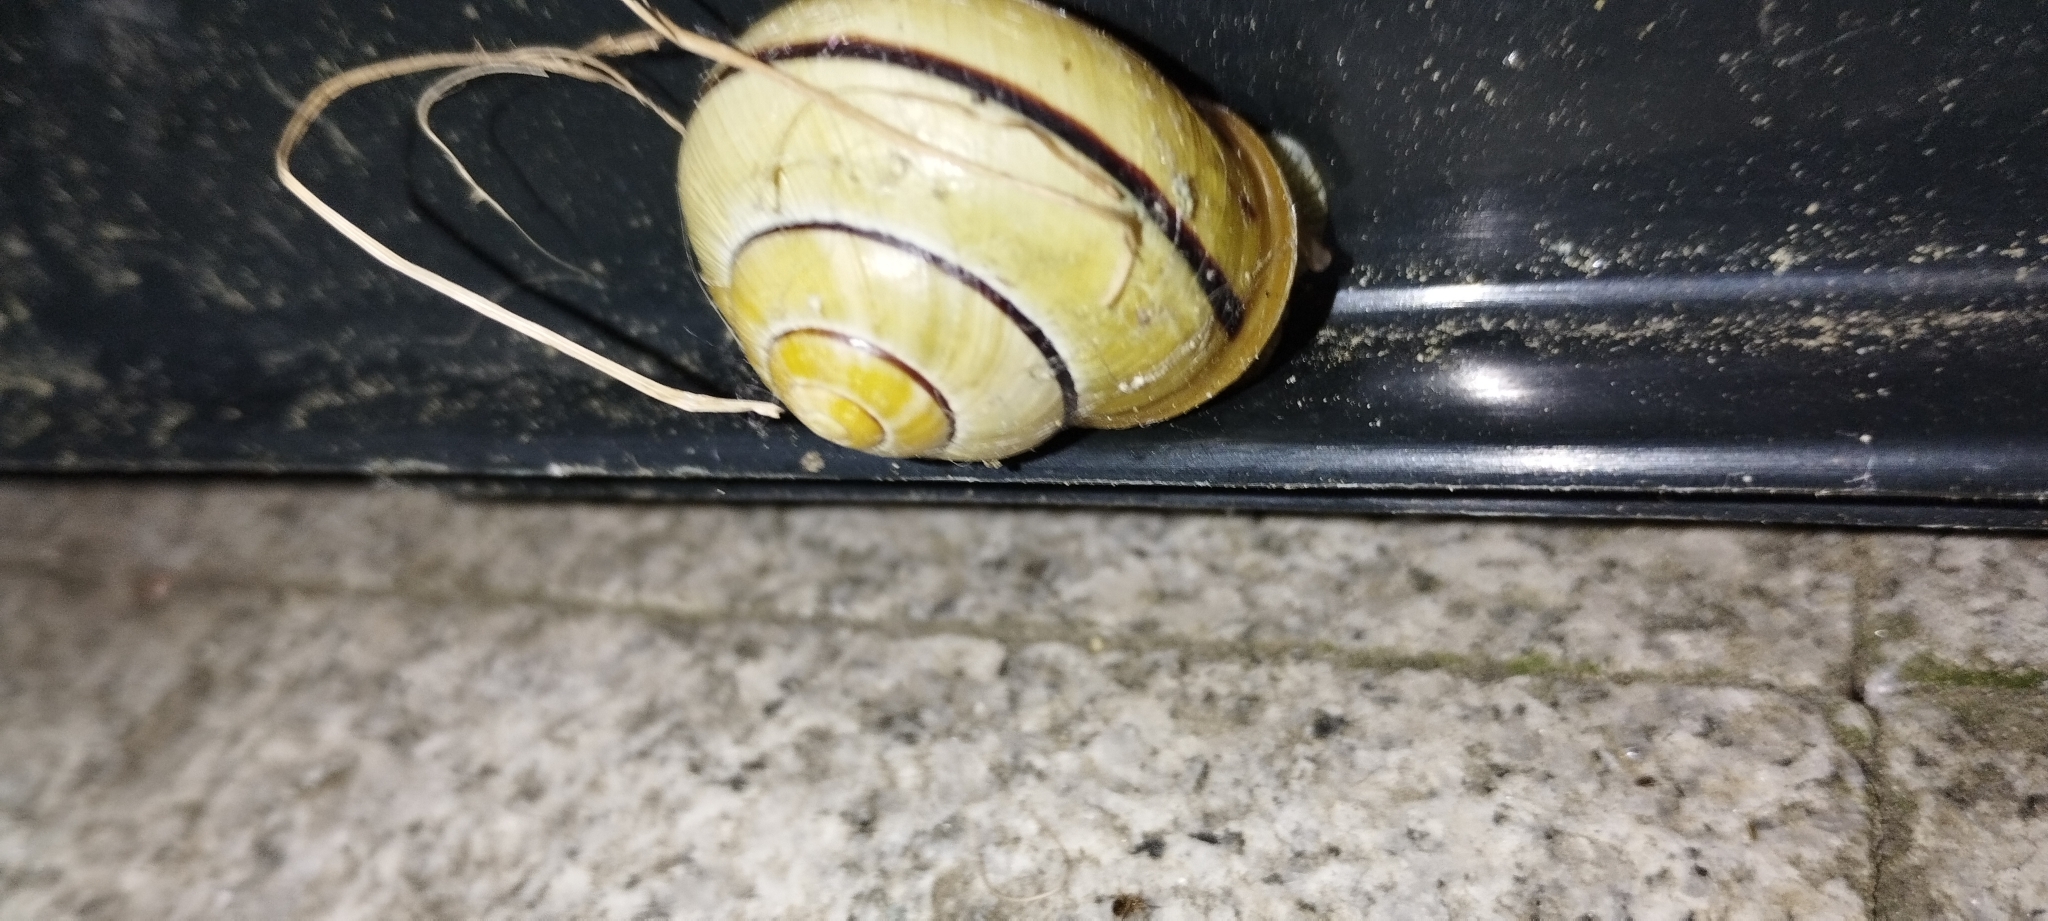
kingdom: Animalia
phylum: Mollusca
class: Gastropoda
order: Stylommatophora
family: Helicidae
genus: Cepaea
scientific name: Cepaea nemoralis
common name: Grovesnail
